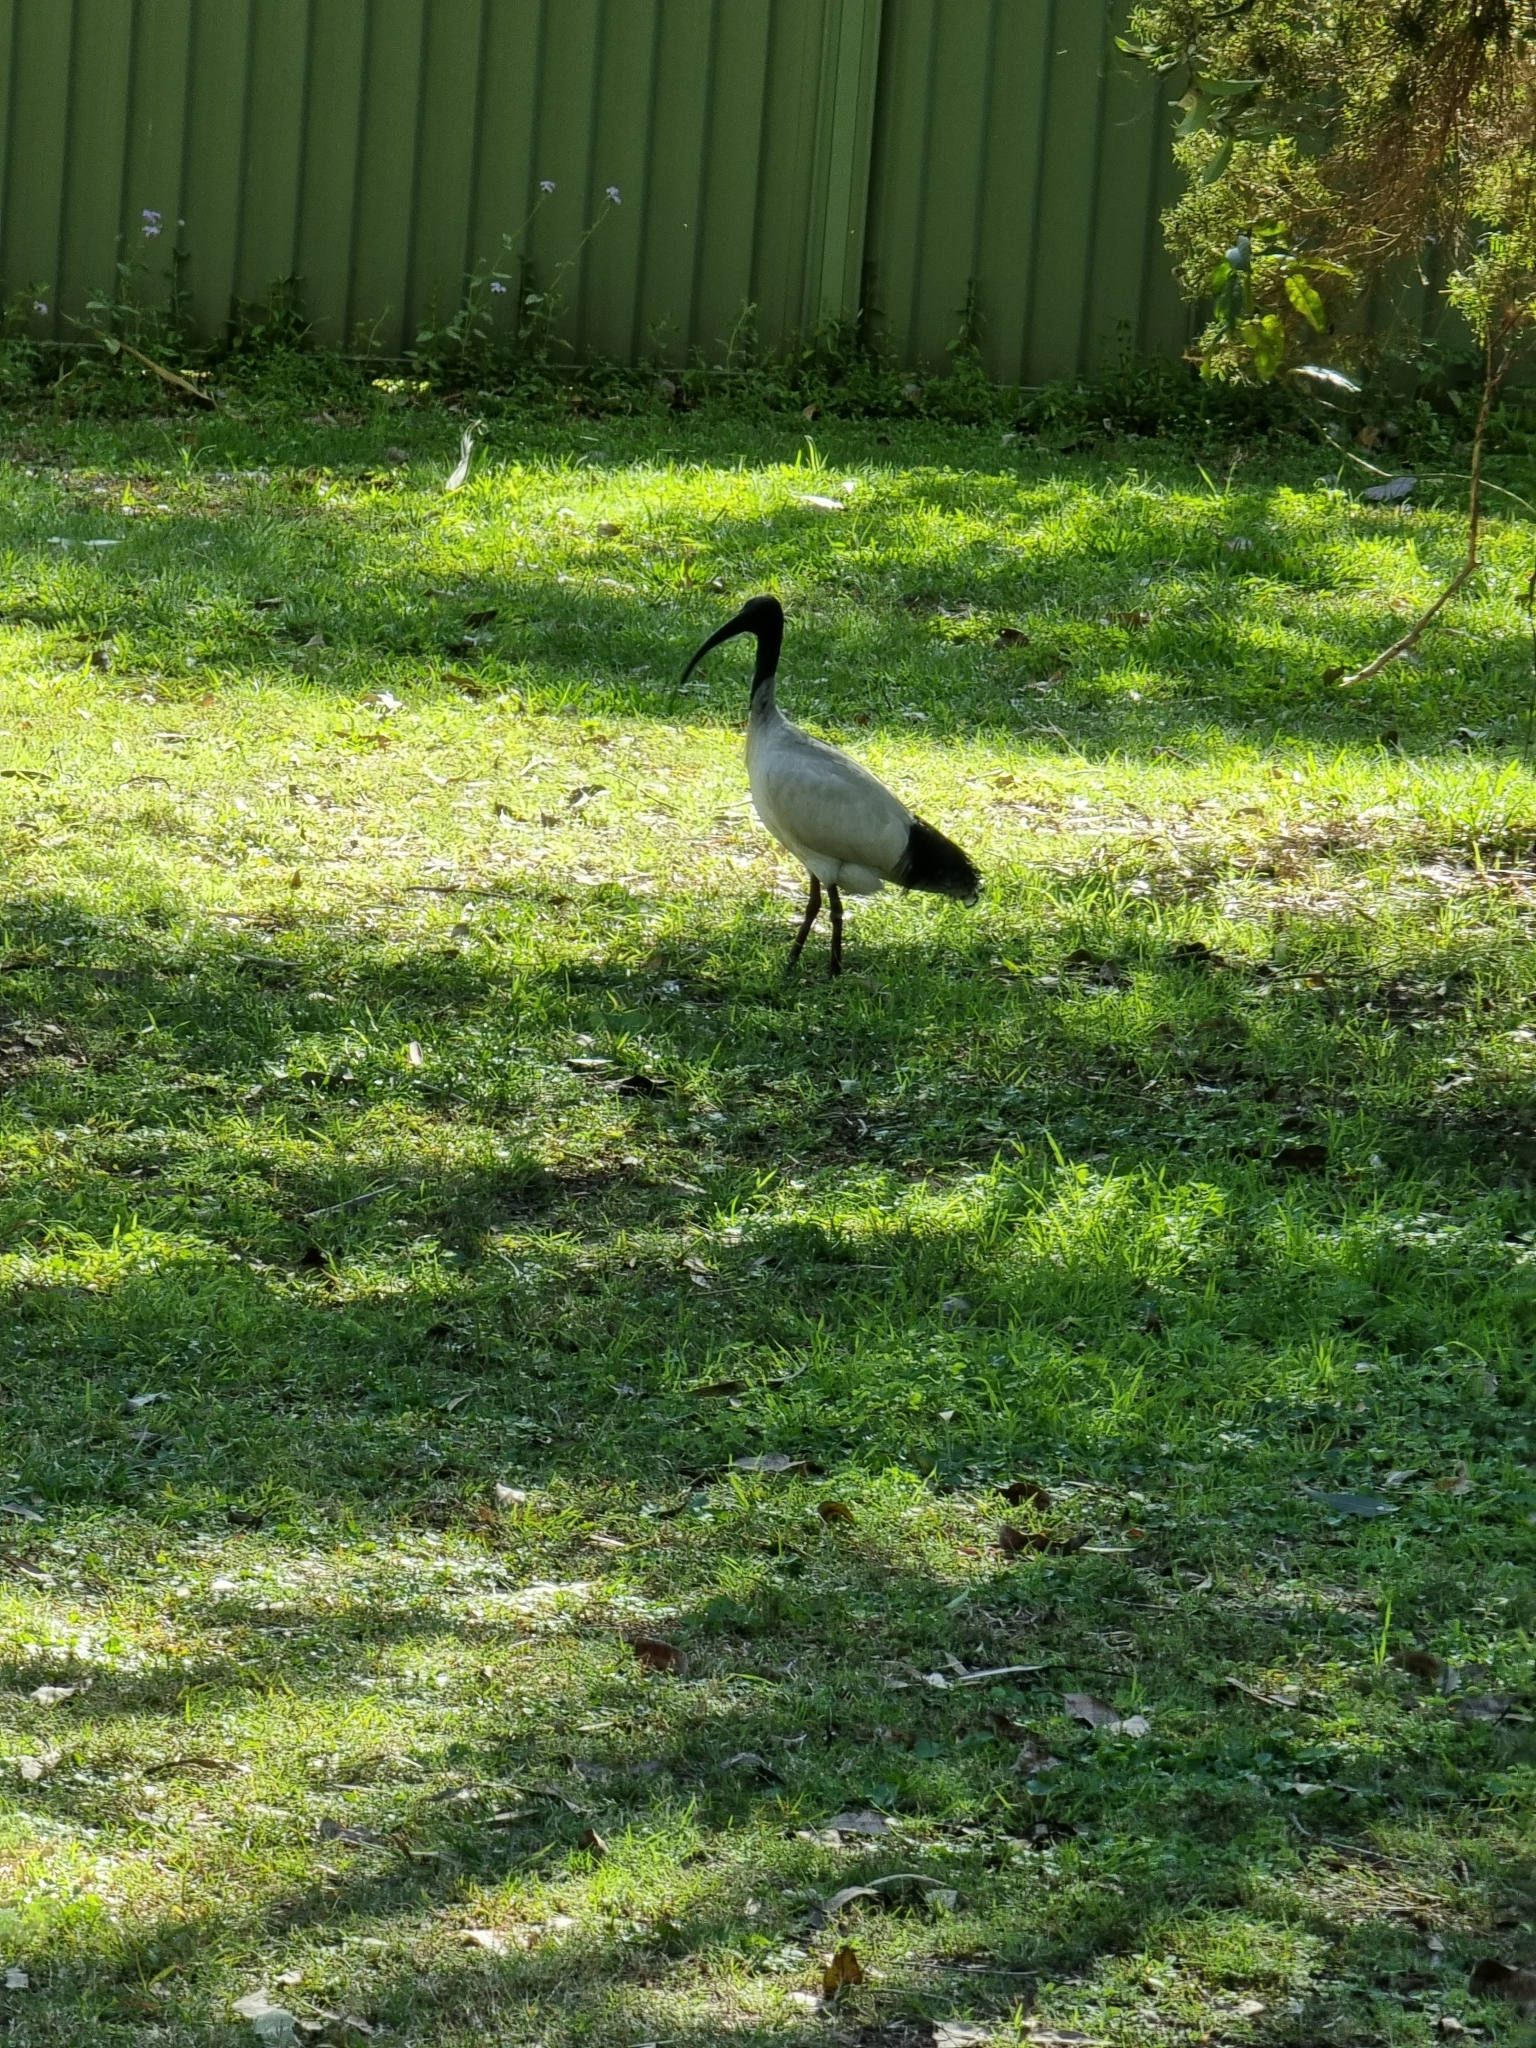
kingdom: Animalia
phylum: Chordata
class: Aves
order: Pelecaniformes
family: Threskiornithidae
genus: Threskiornis
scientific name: Threskiornis molucca
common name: Australian white ibis
